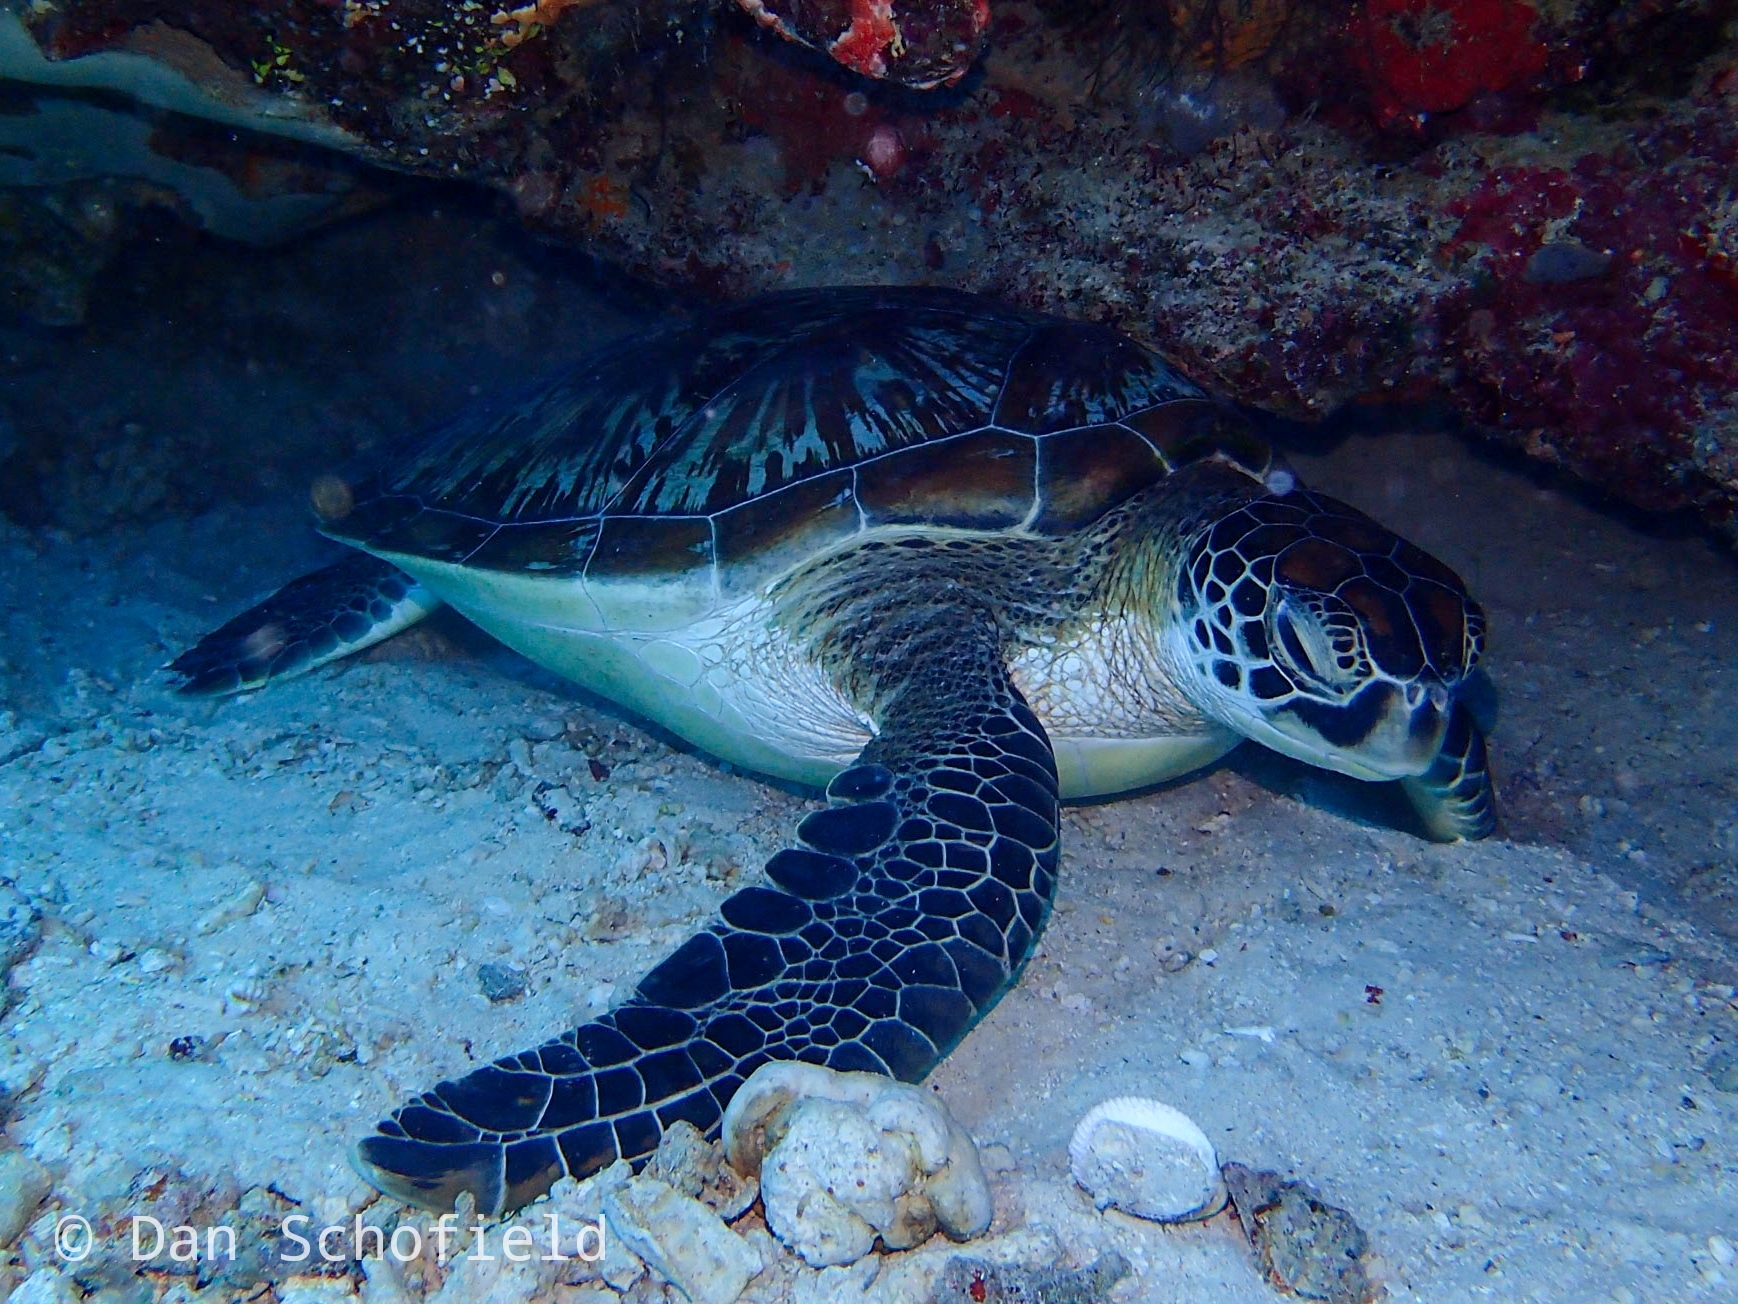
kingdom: Animalia
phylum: Chordata
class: Testudines
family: Cheloniidae
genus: Chelonia
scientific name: Chelonia mydas
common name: Green turtle
